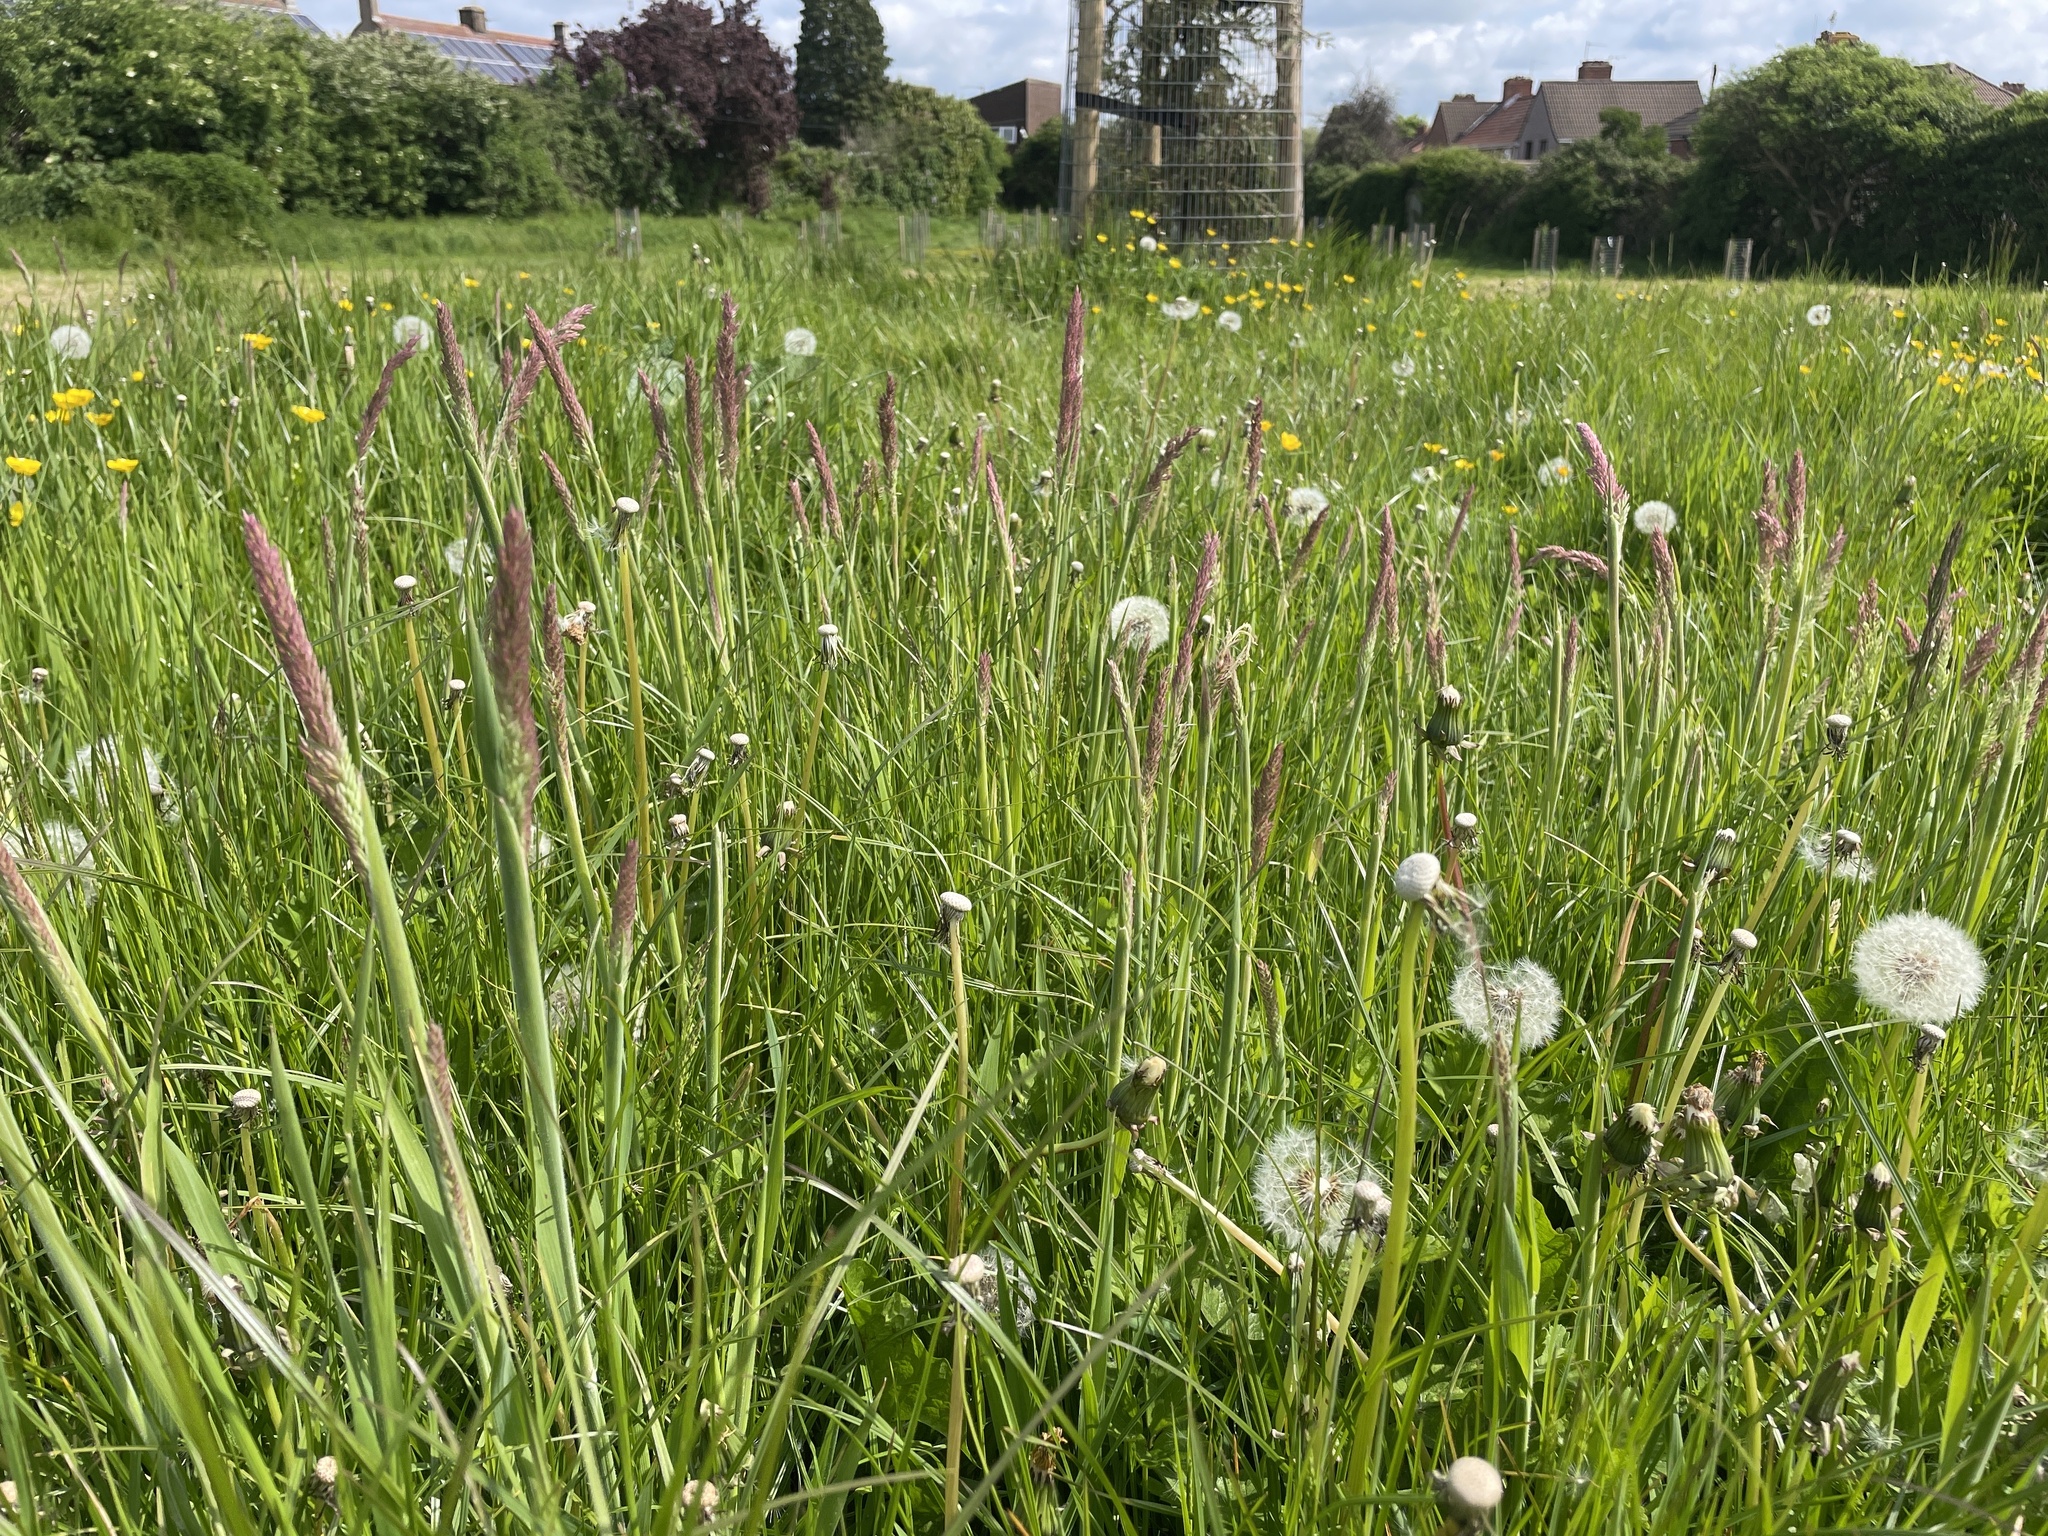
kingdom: Plantae
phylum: Tracheophyta
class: Liliopsida
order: Poales
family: Poaceae
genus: Holcus
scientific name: Holcus lanatus
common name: Yorkshire-fog
